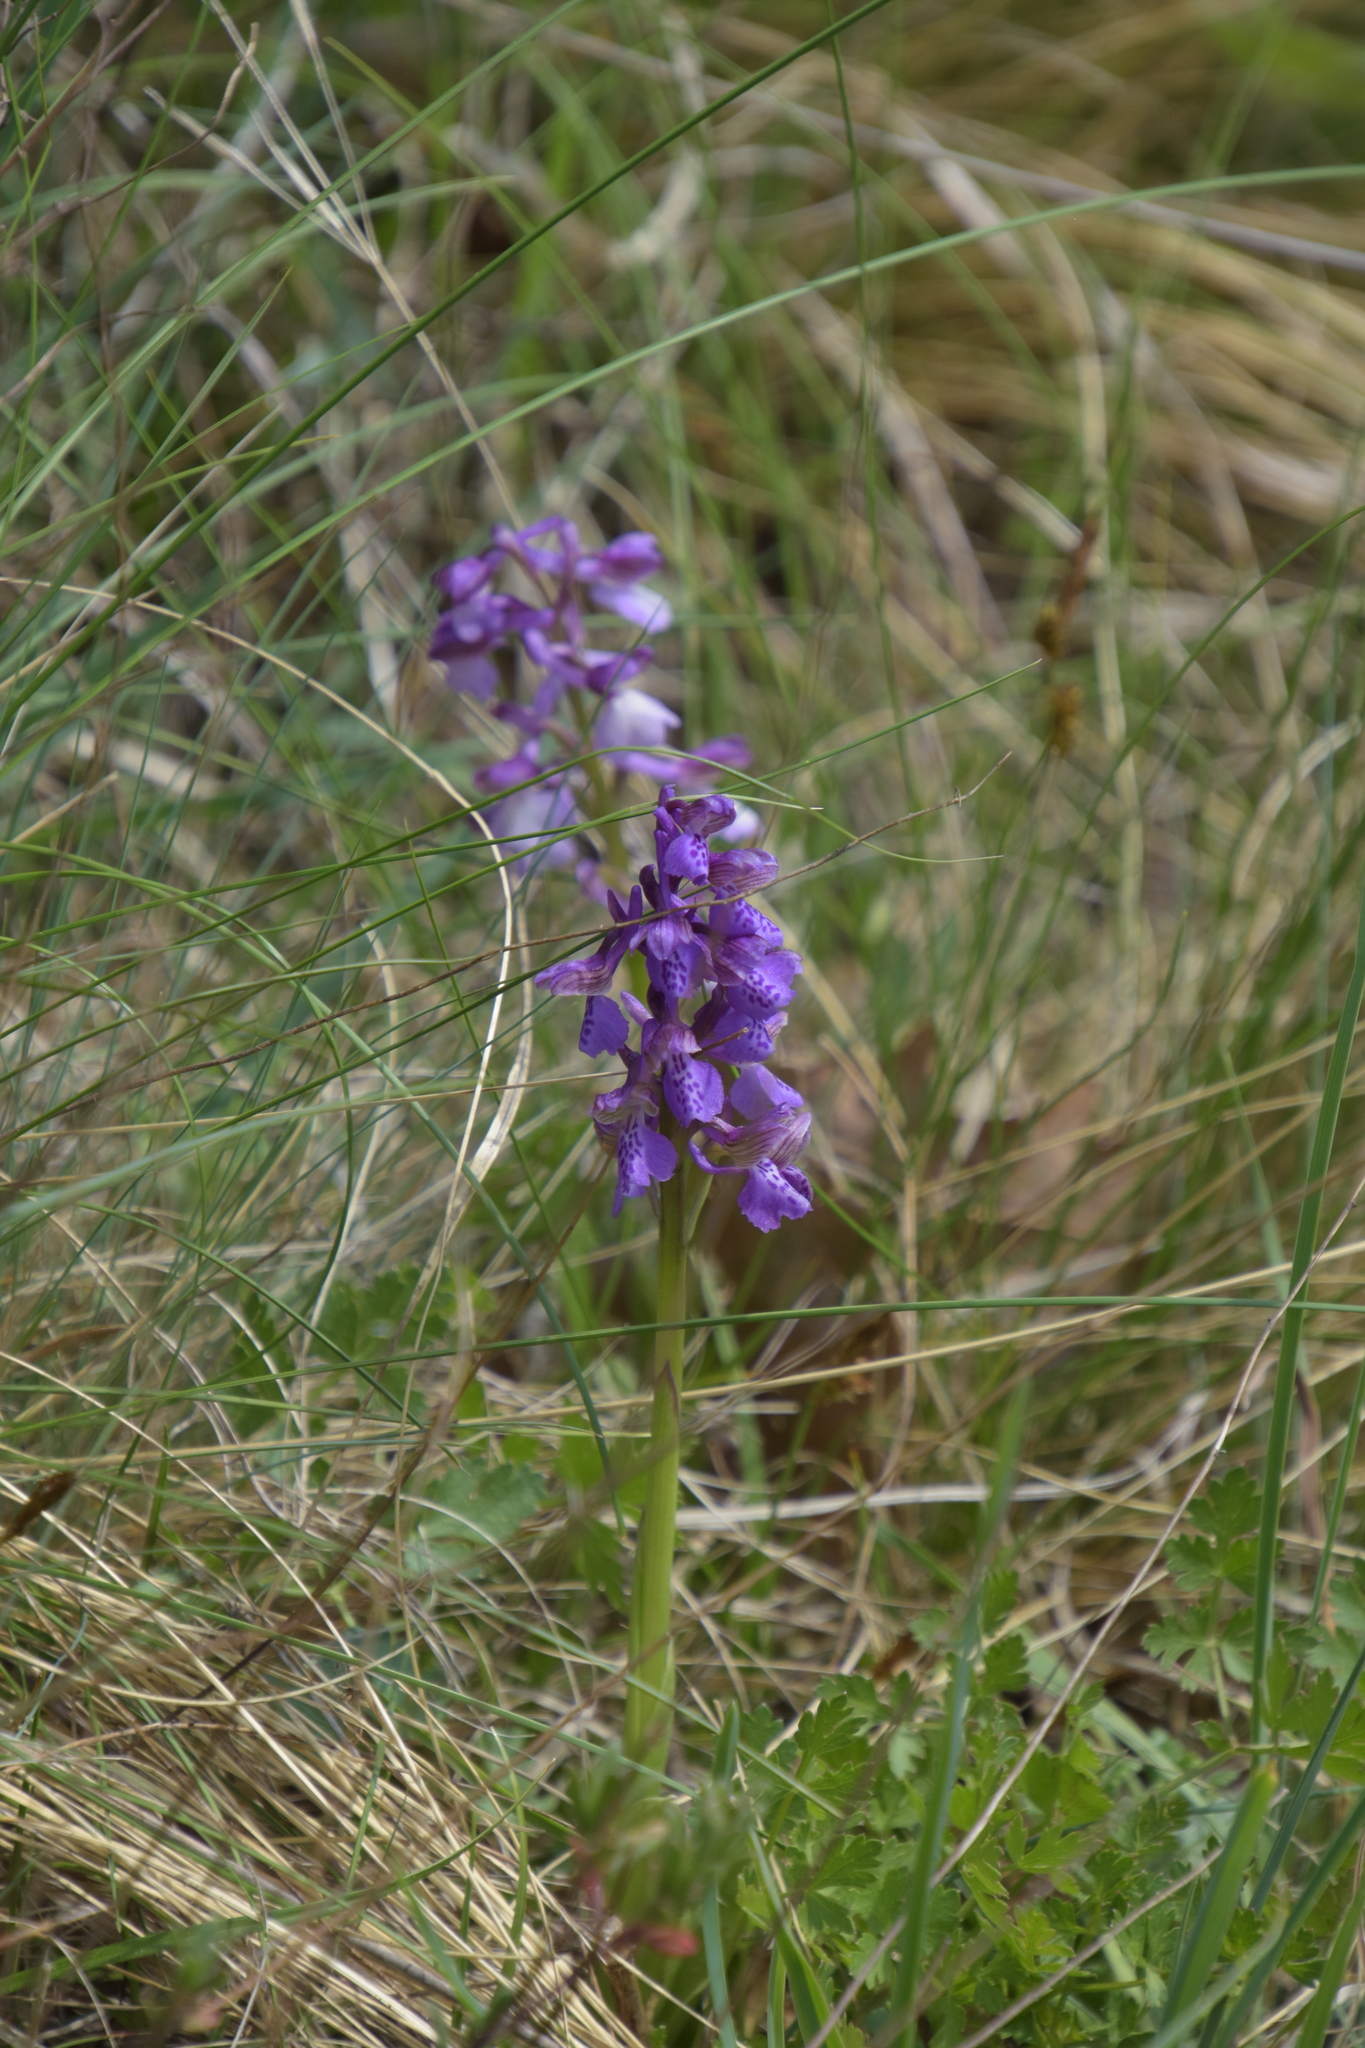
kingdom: Plantae
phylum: Tracheophyta
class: Liliopsida
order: Asparagales
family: Orchidaceae
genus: Anacamptis
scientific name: Anacamptis morio
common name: Green-winged orchid
